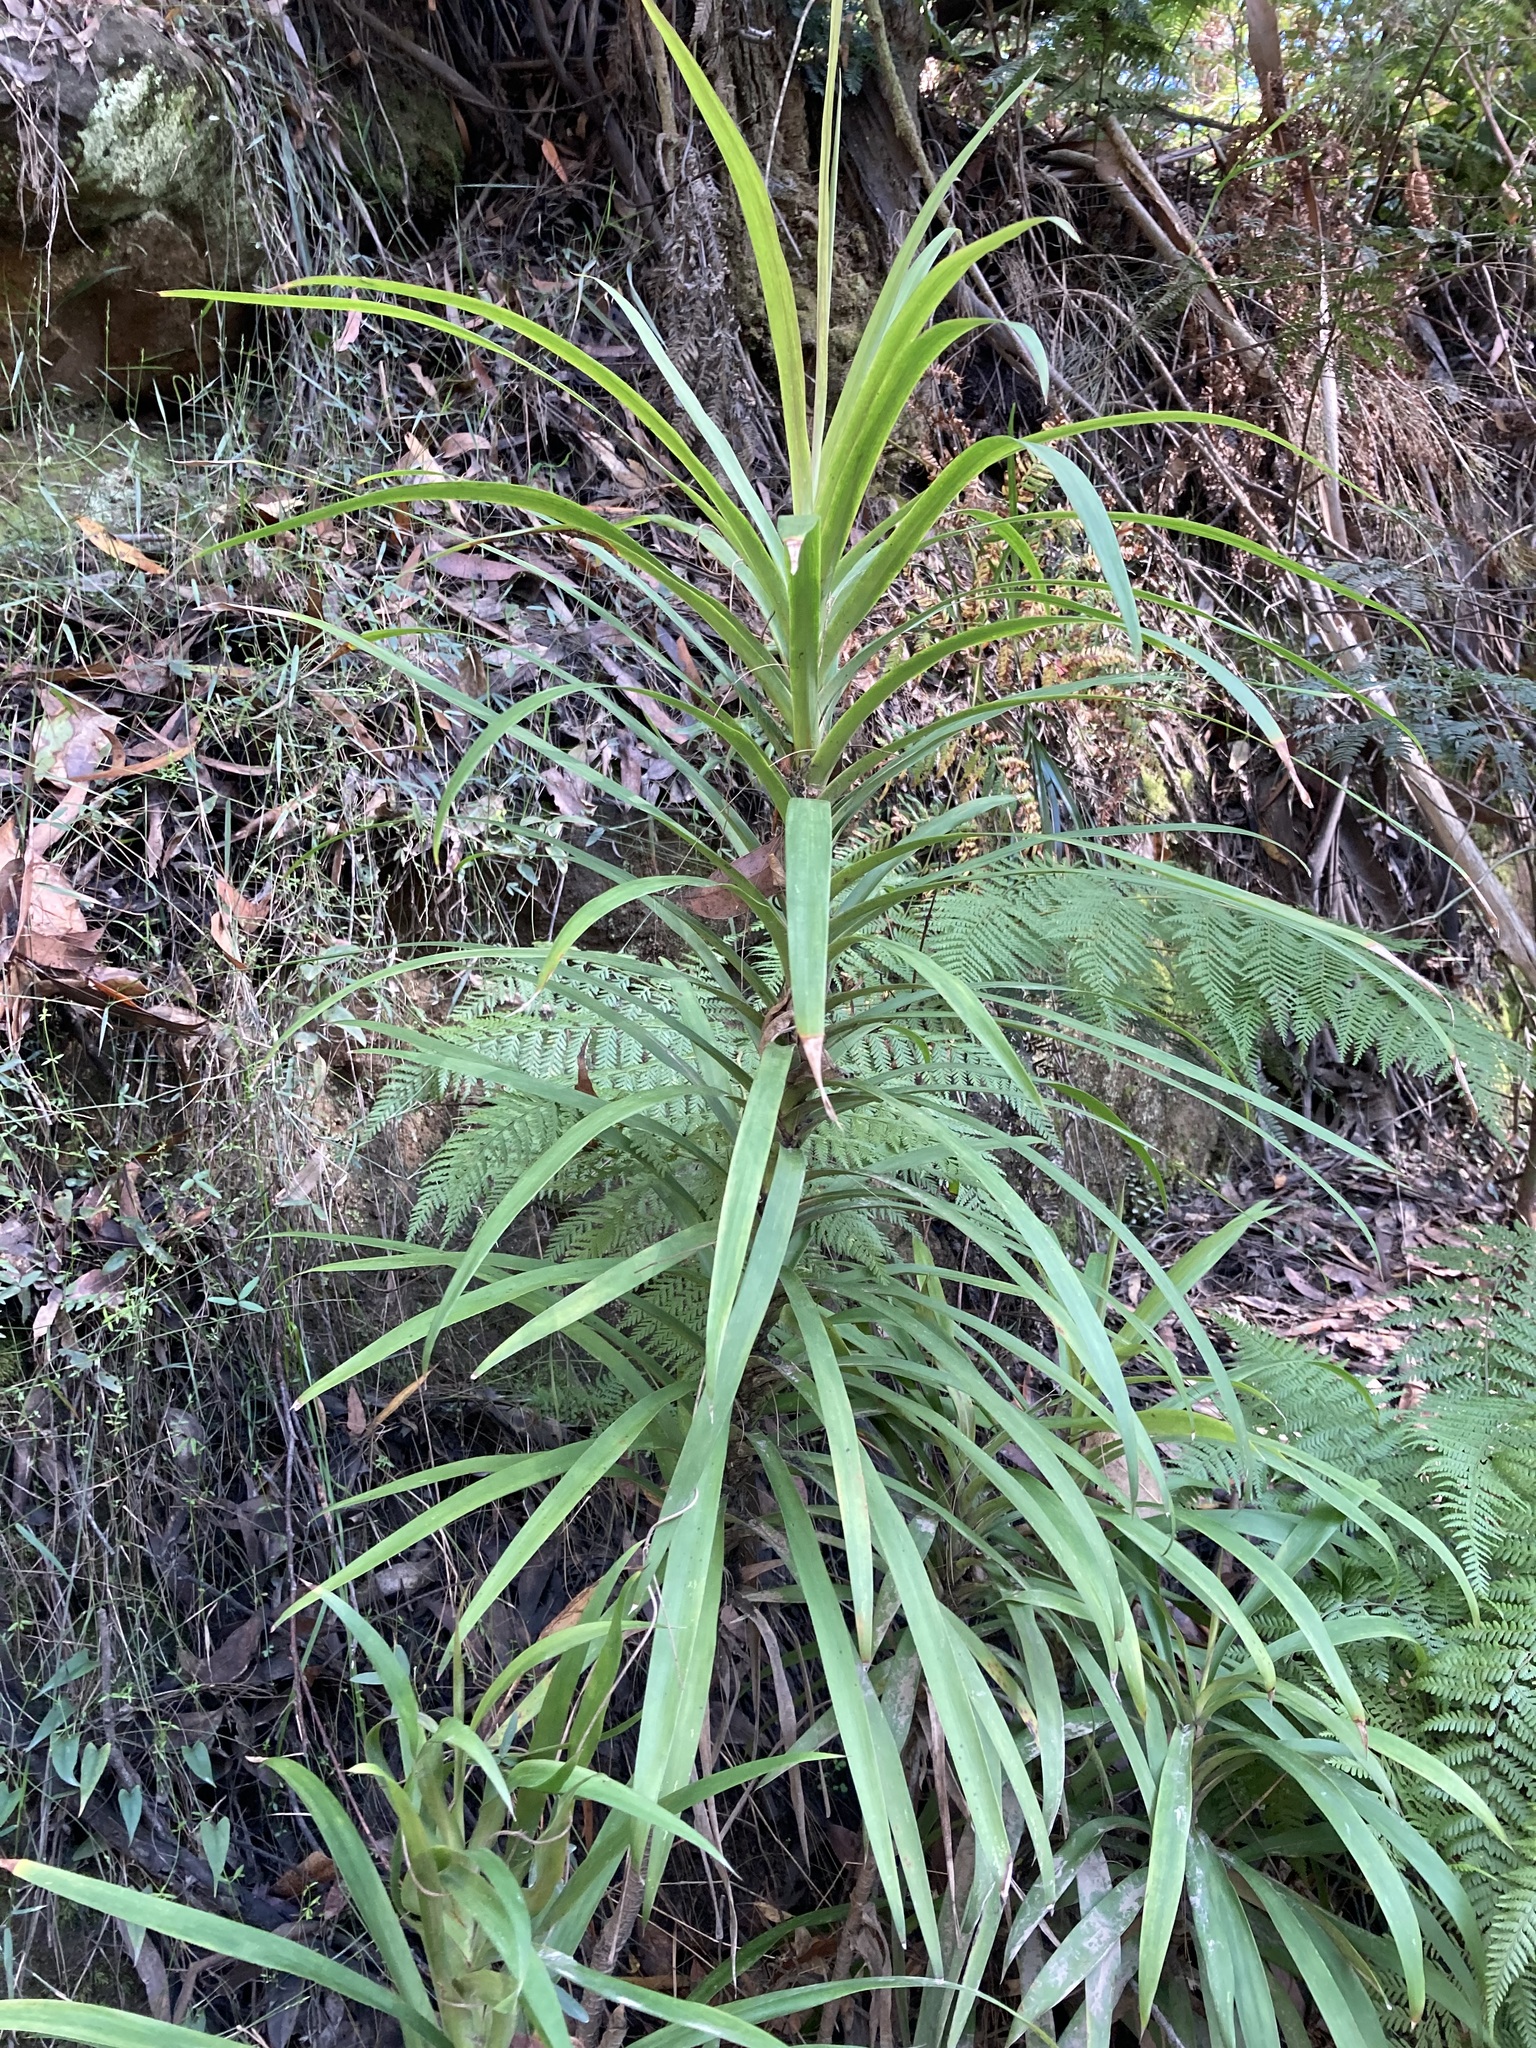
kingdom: Plantae
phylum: Tracheophyta
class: Liliopsida
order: Asparagales
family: Asparagaceae
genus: Cordyline
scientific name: Cordyline stricta
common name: Narrow-leaf palm-lily
